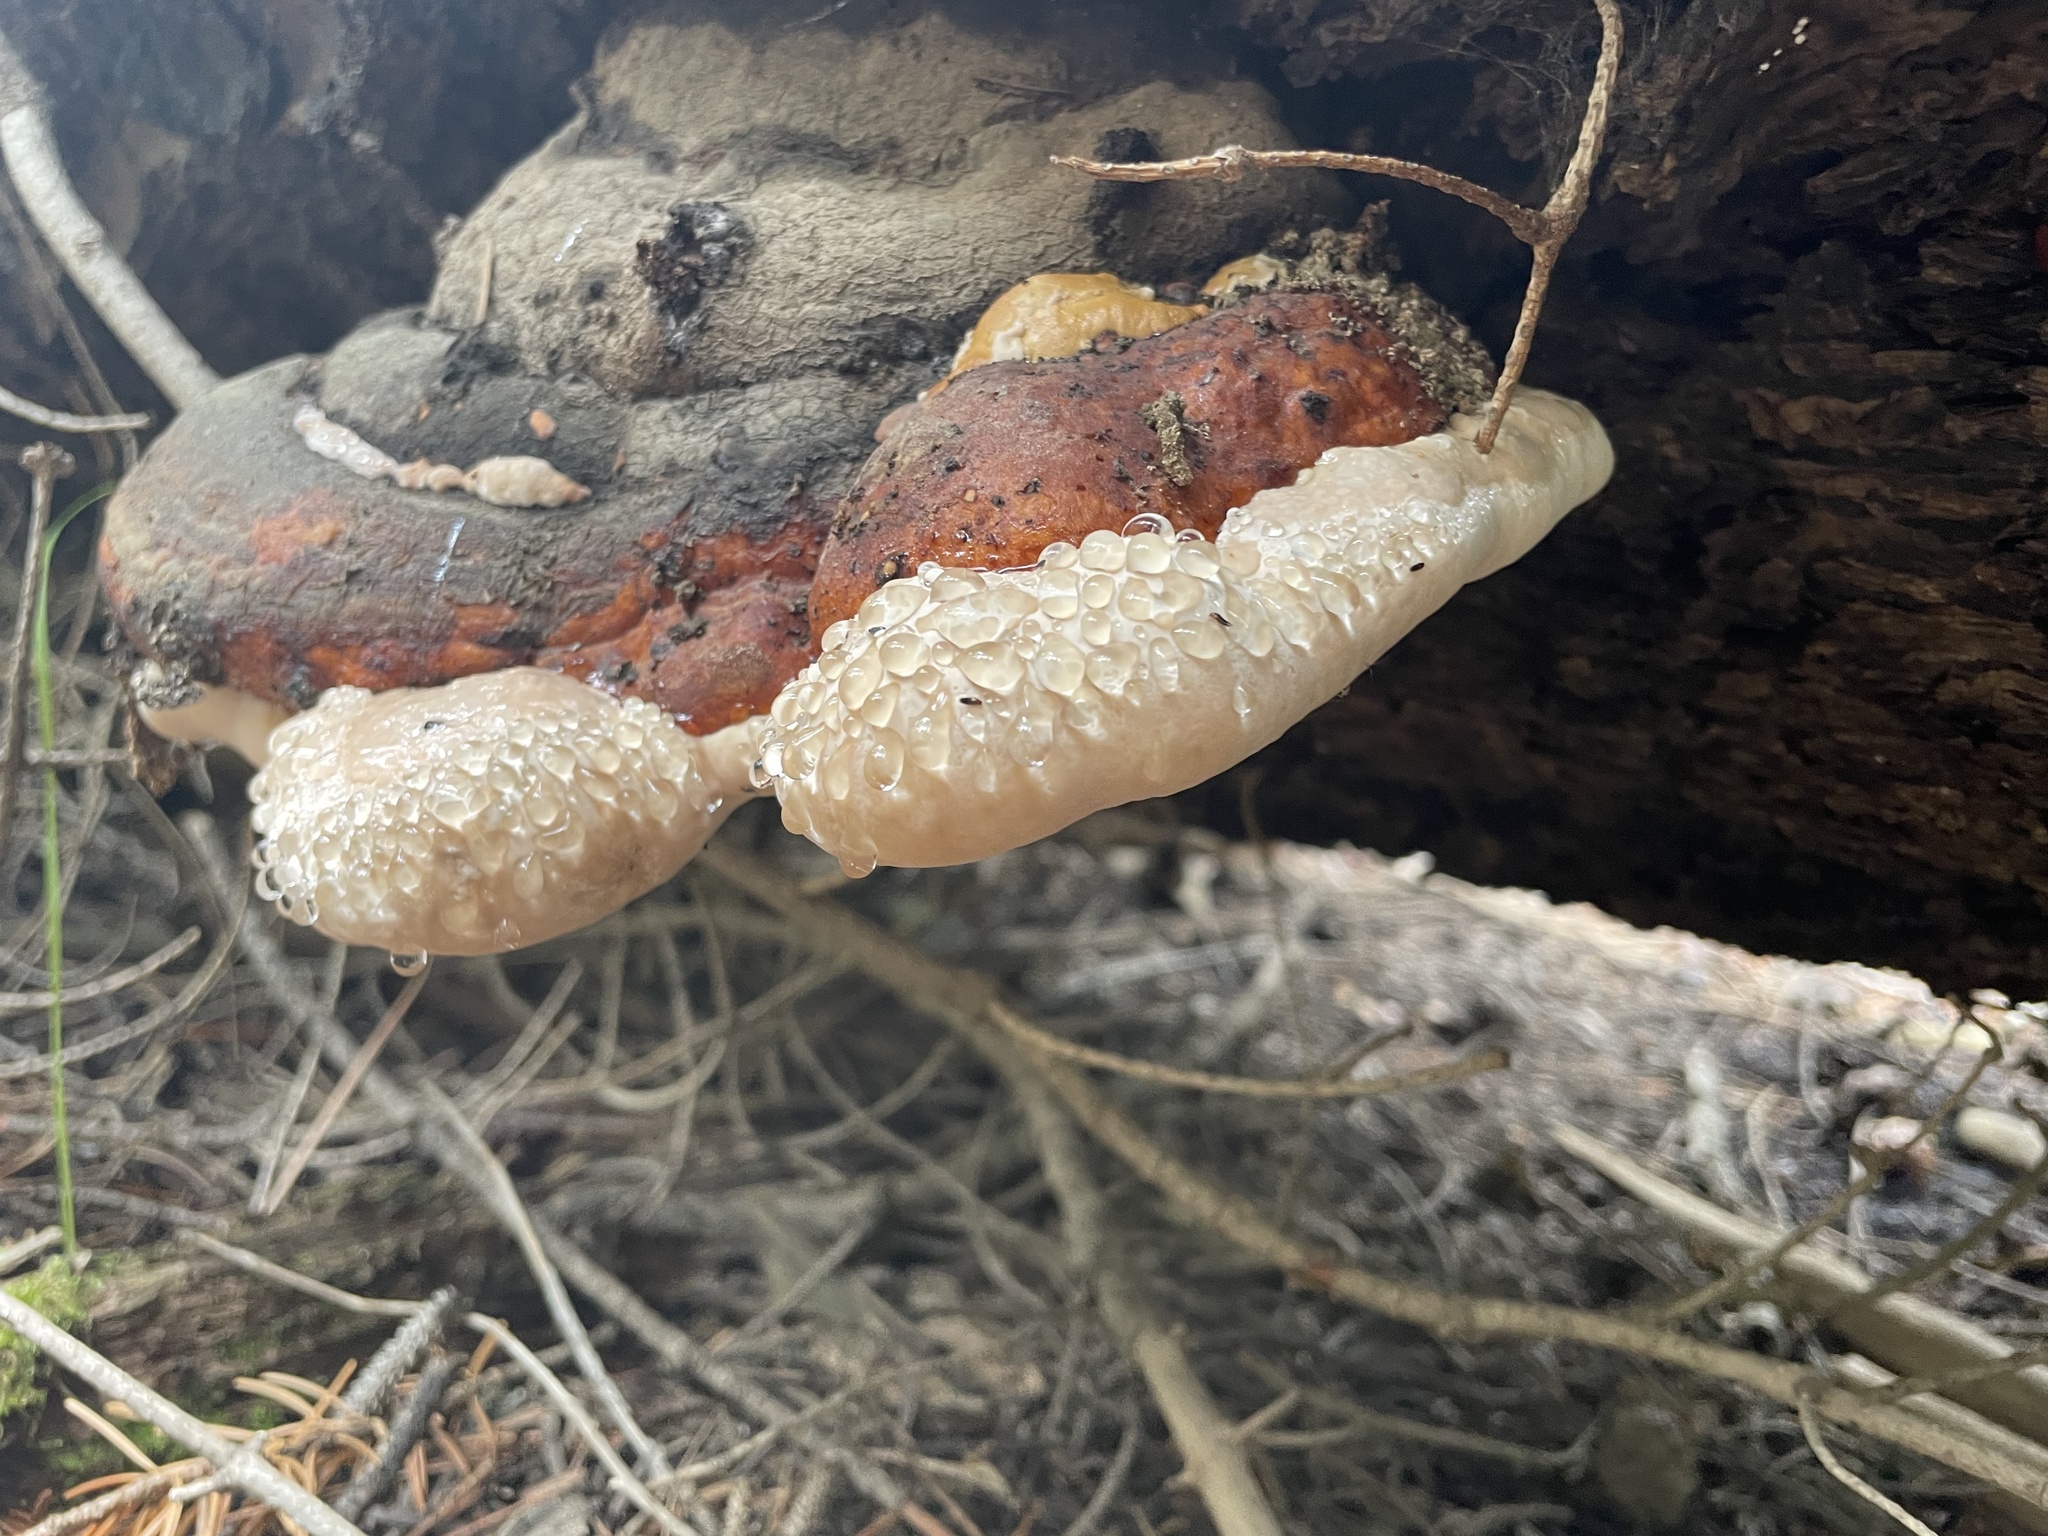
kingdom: Fungi
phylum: Basidiomycota
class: Agaricomycetes
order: Polyporales
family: Fomitopsidaceae
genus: Fomitopsis
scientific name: Fomitopsis schrenkii
